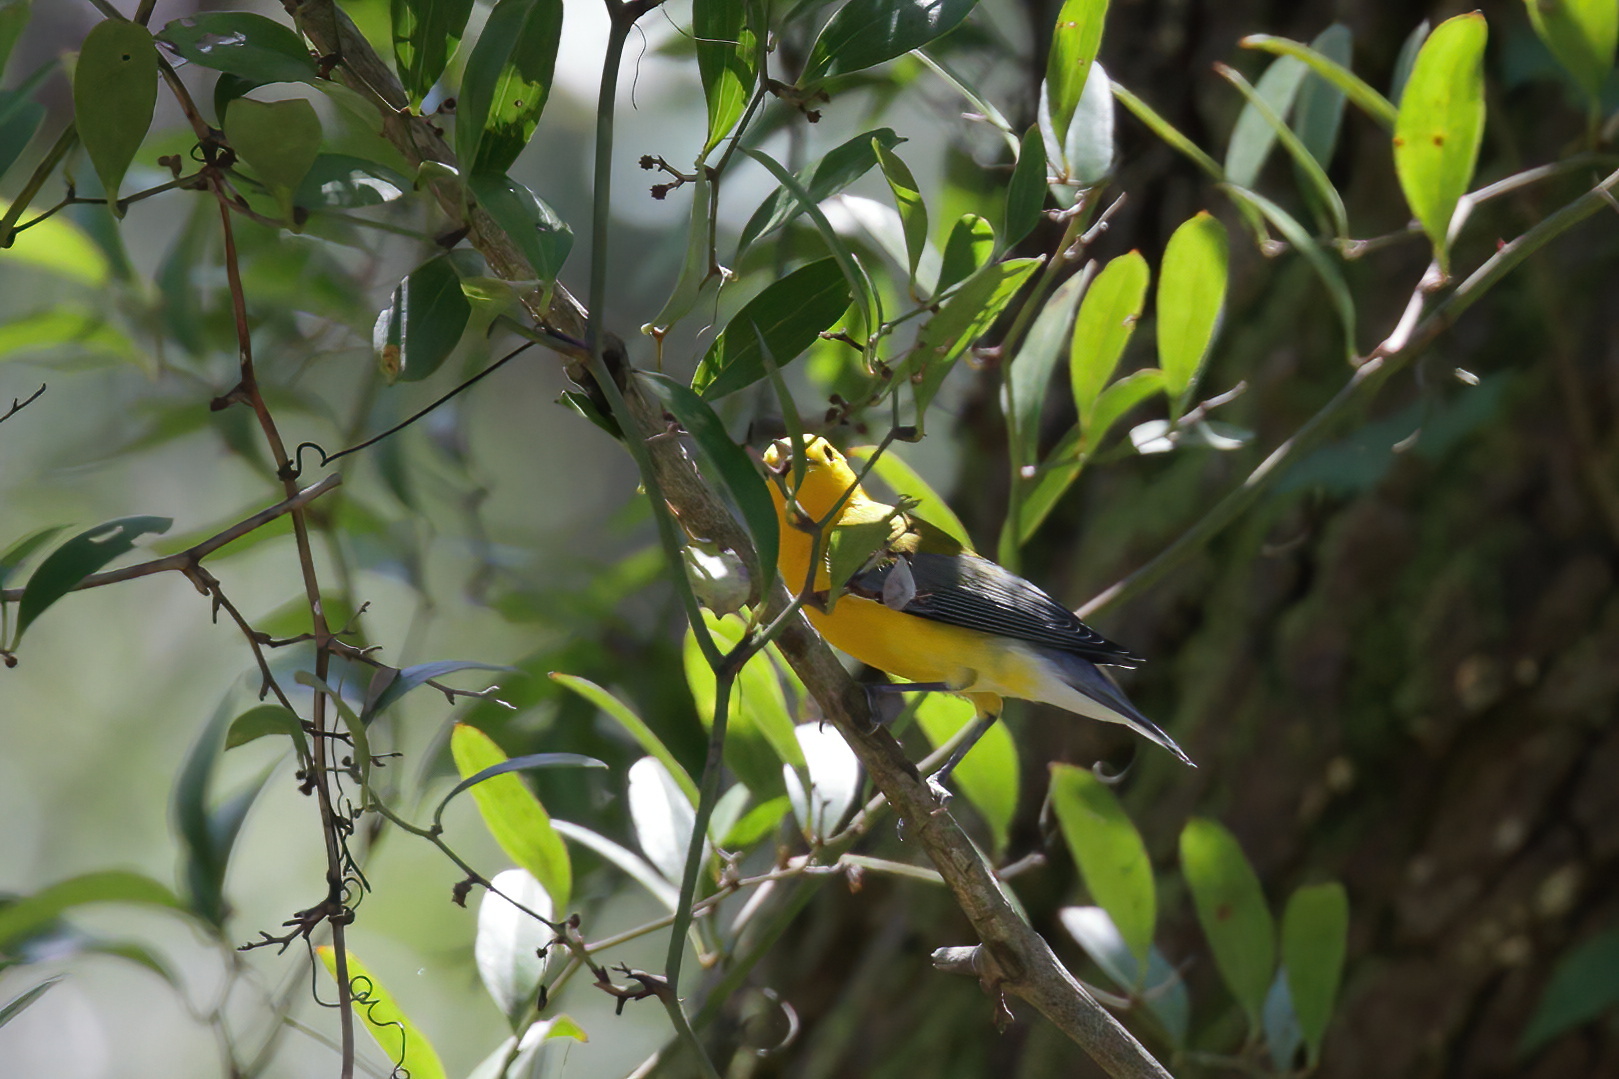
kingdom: Animalia
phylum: Chordata
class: Aves
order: Passeriformes
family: Parulidae
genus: Protonotaria
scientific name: Protonotaria citrea
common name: Prothonotary warbler
